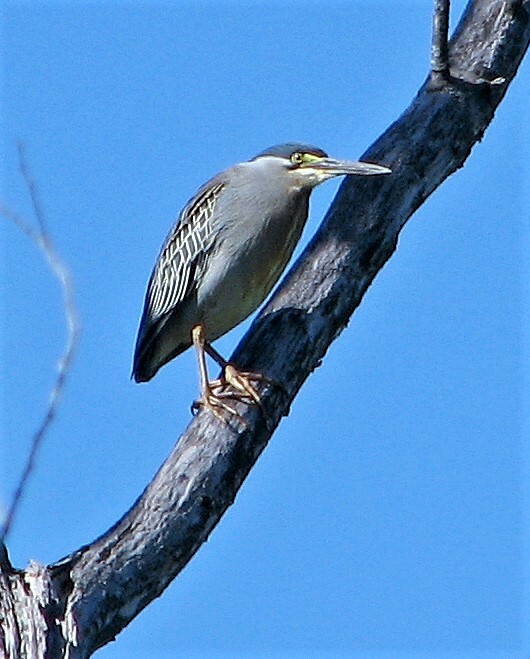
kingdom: Animalia
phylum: Chordata
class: Aves
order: Pelecaniformes
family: Ardeidae
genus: Butorides
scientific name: Butorides striata
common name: Striated heron
